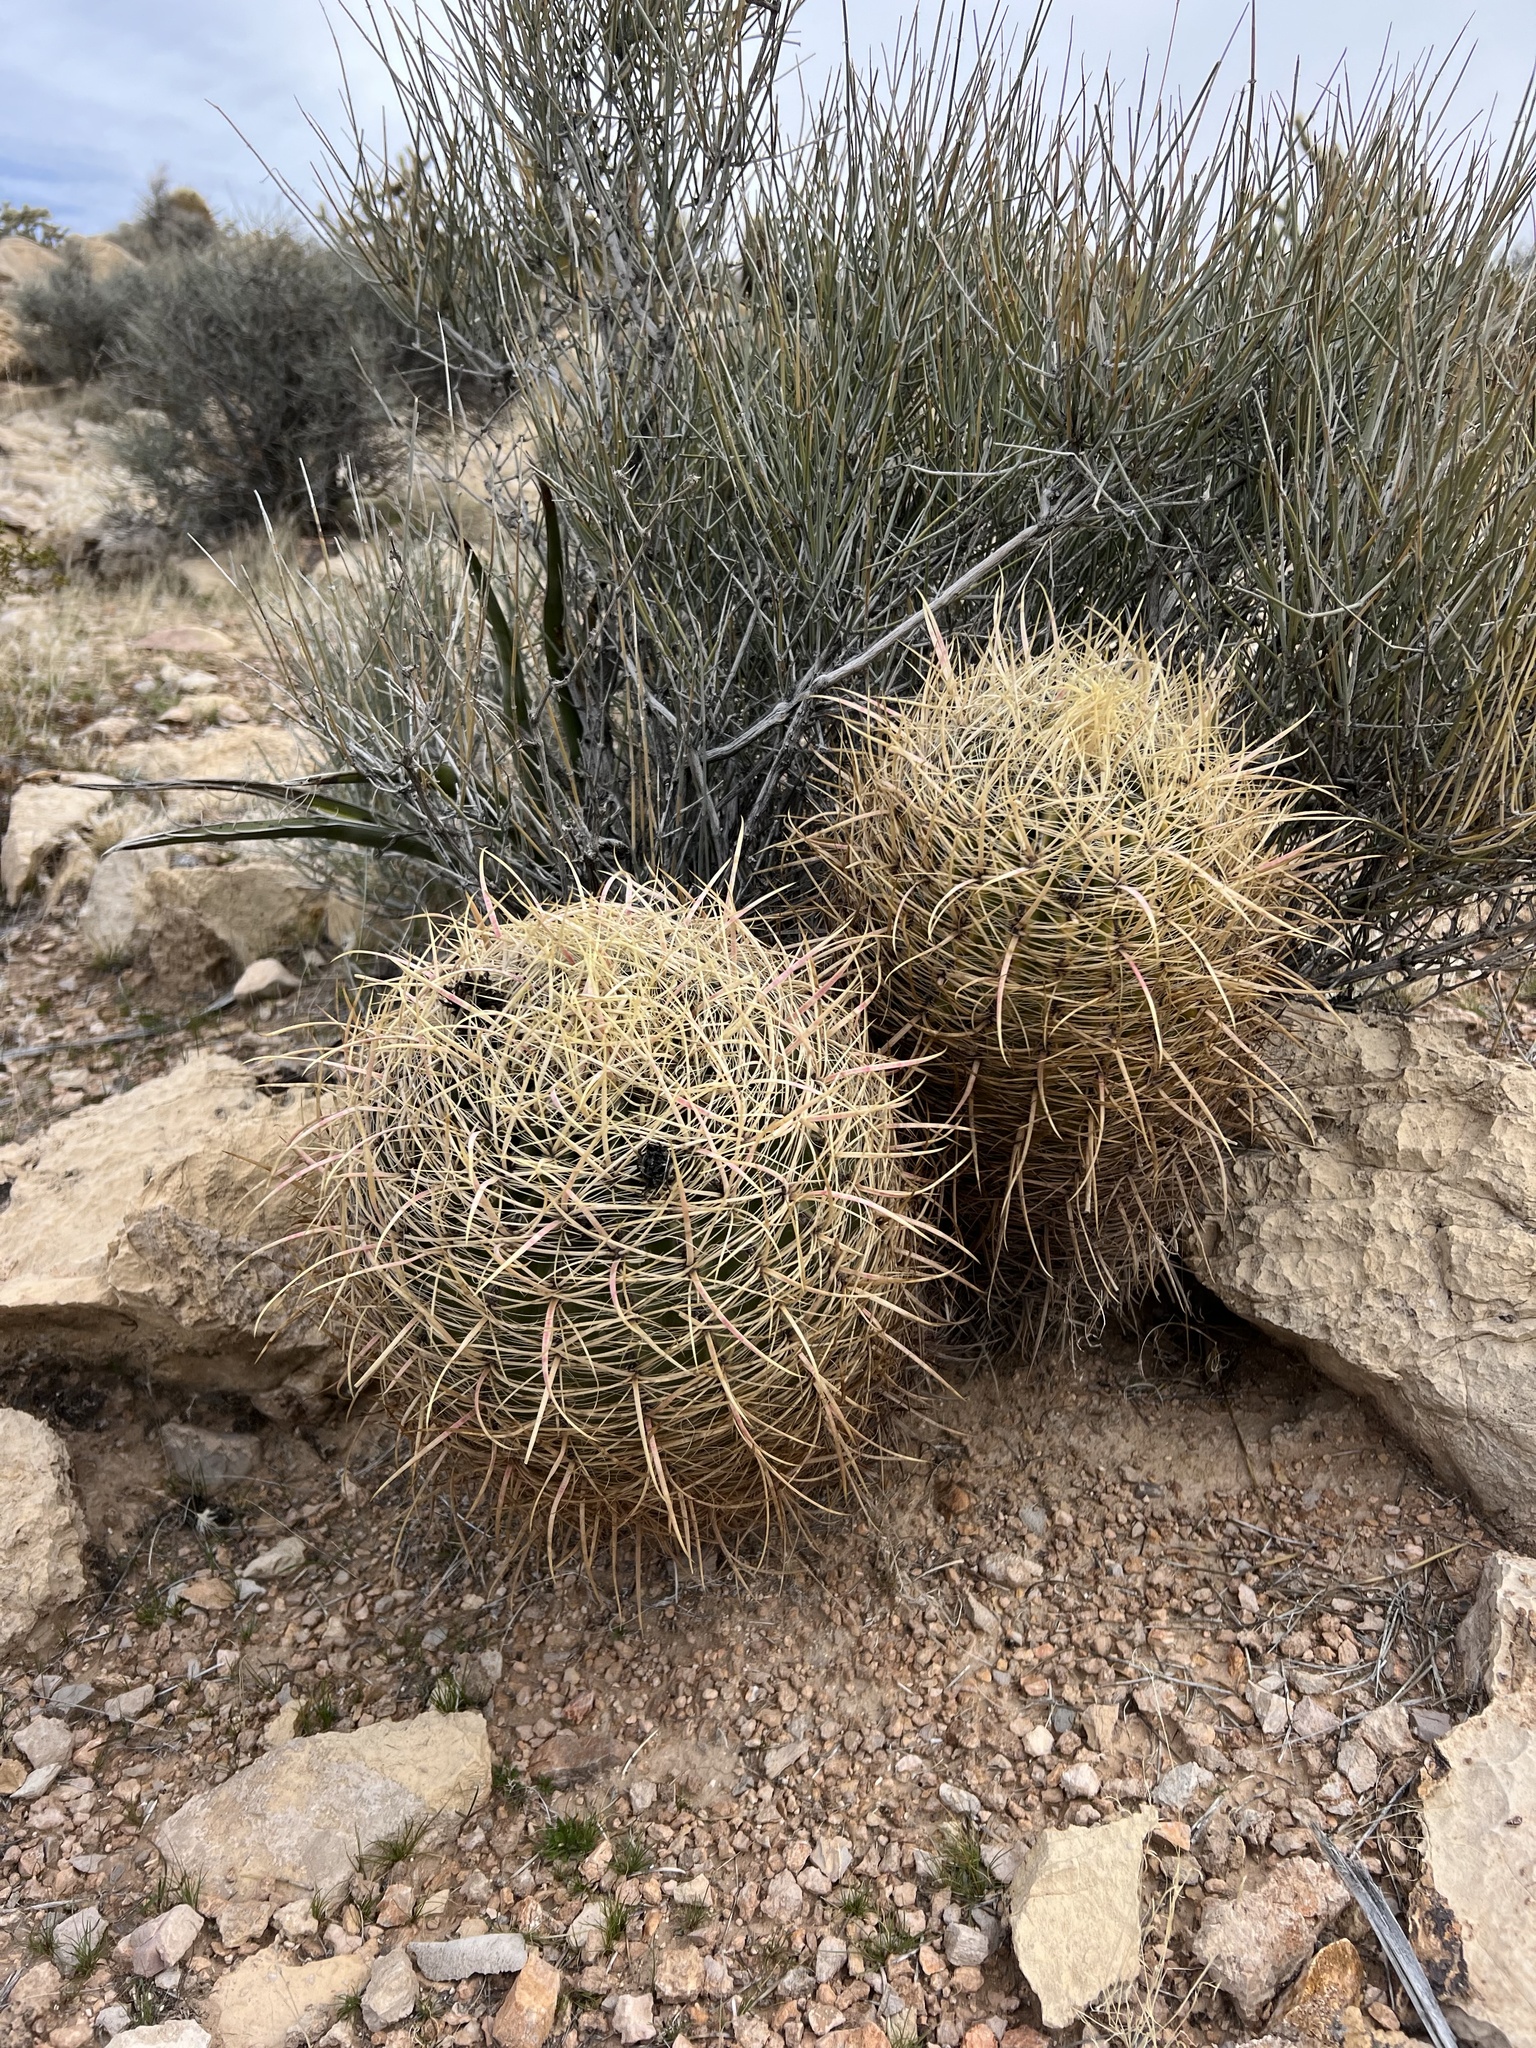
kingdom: Plantae
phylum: Tracheophyta
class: Magnoliopsida
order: Caryophyllales
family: Cactaceae
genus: Ferocactus
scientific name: Ferocactus cylindraceus
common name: California barrel cactus
